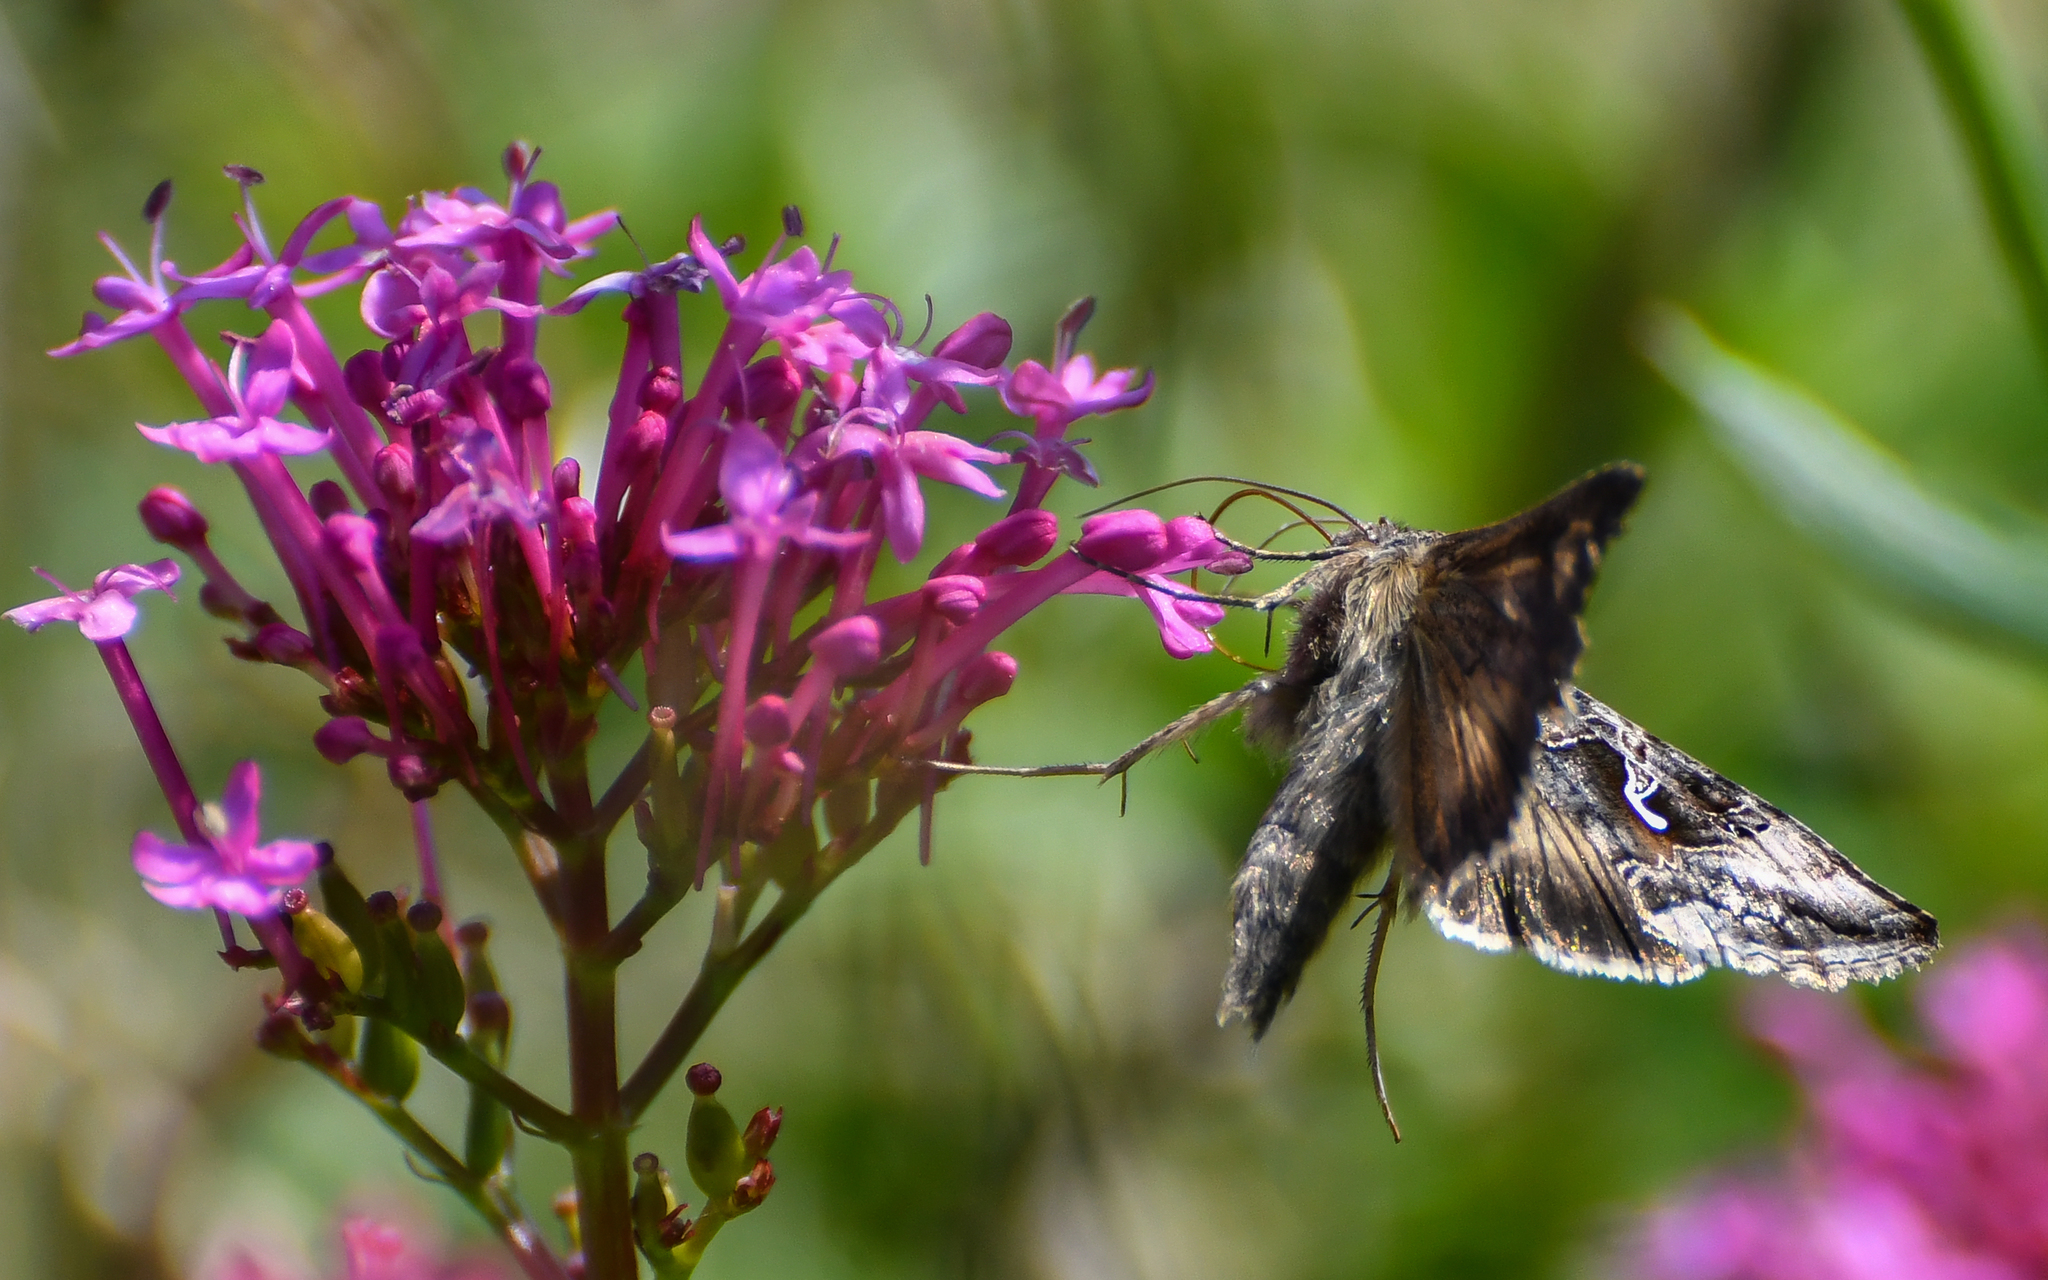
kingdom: Animalia
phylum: Arthropoda
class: Insecta
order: Lepidoptera
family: Noctuidae
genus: Autographa
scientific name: Autographa gamma
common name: Silver y
